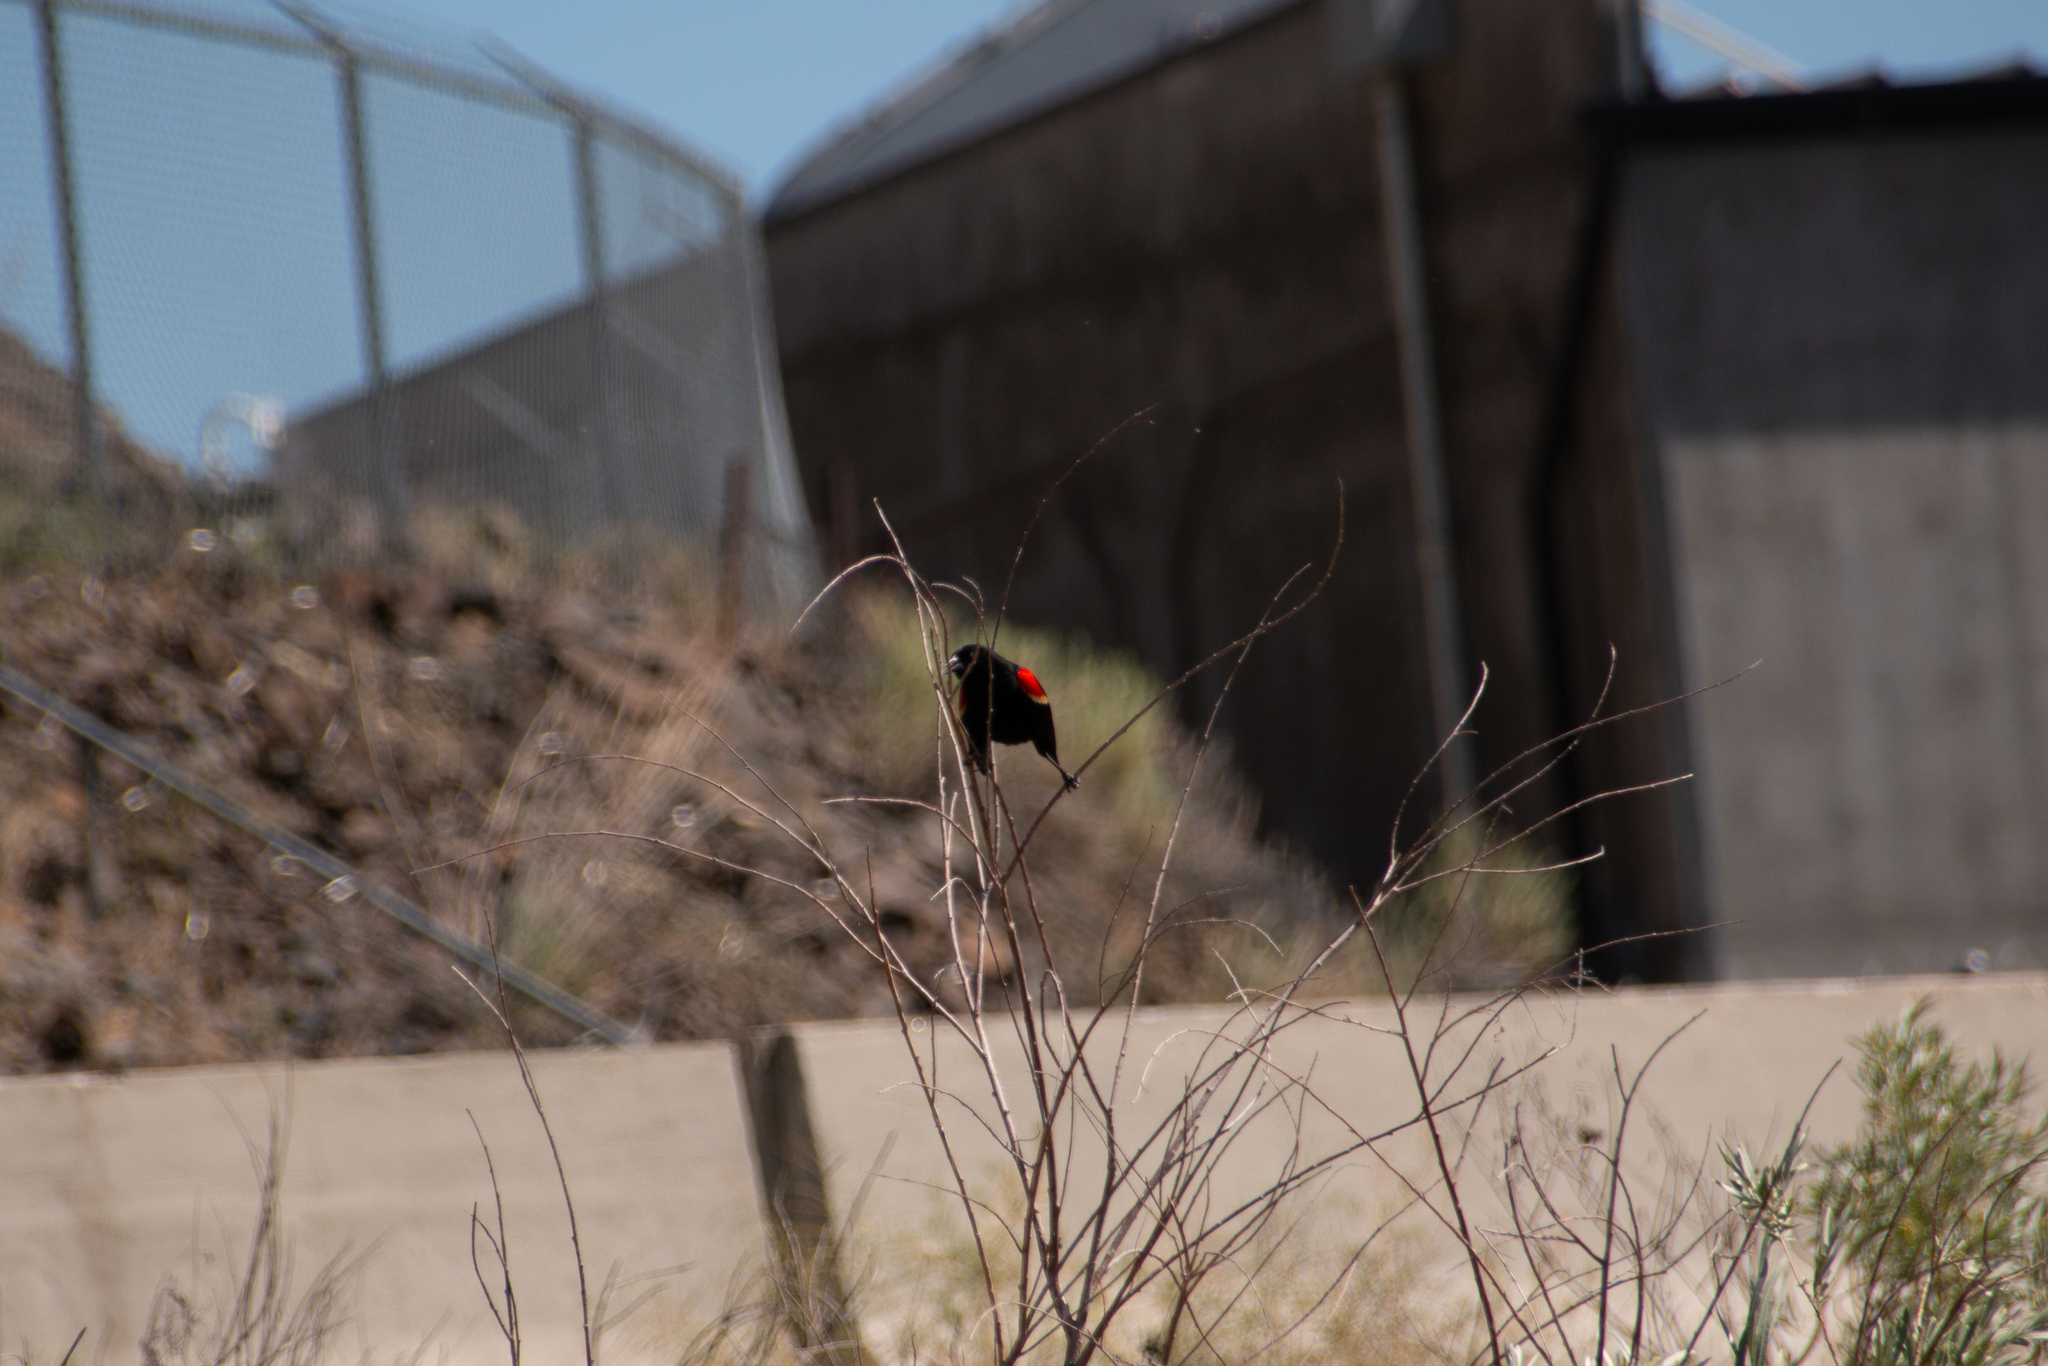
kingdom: Animalia
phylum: Chordata
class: Aves
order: Passeriformes
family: Icteridae
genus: Agelaius
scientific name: Agelaius phoeniceus
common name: Red-winged blackbird
